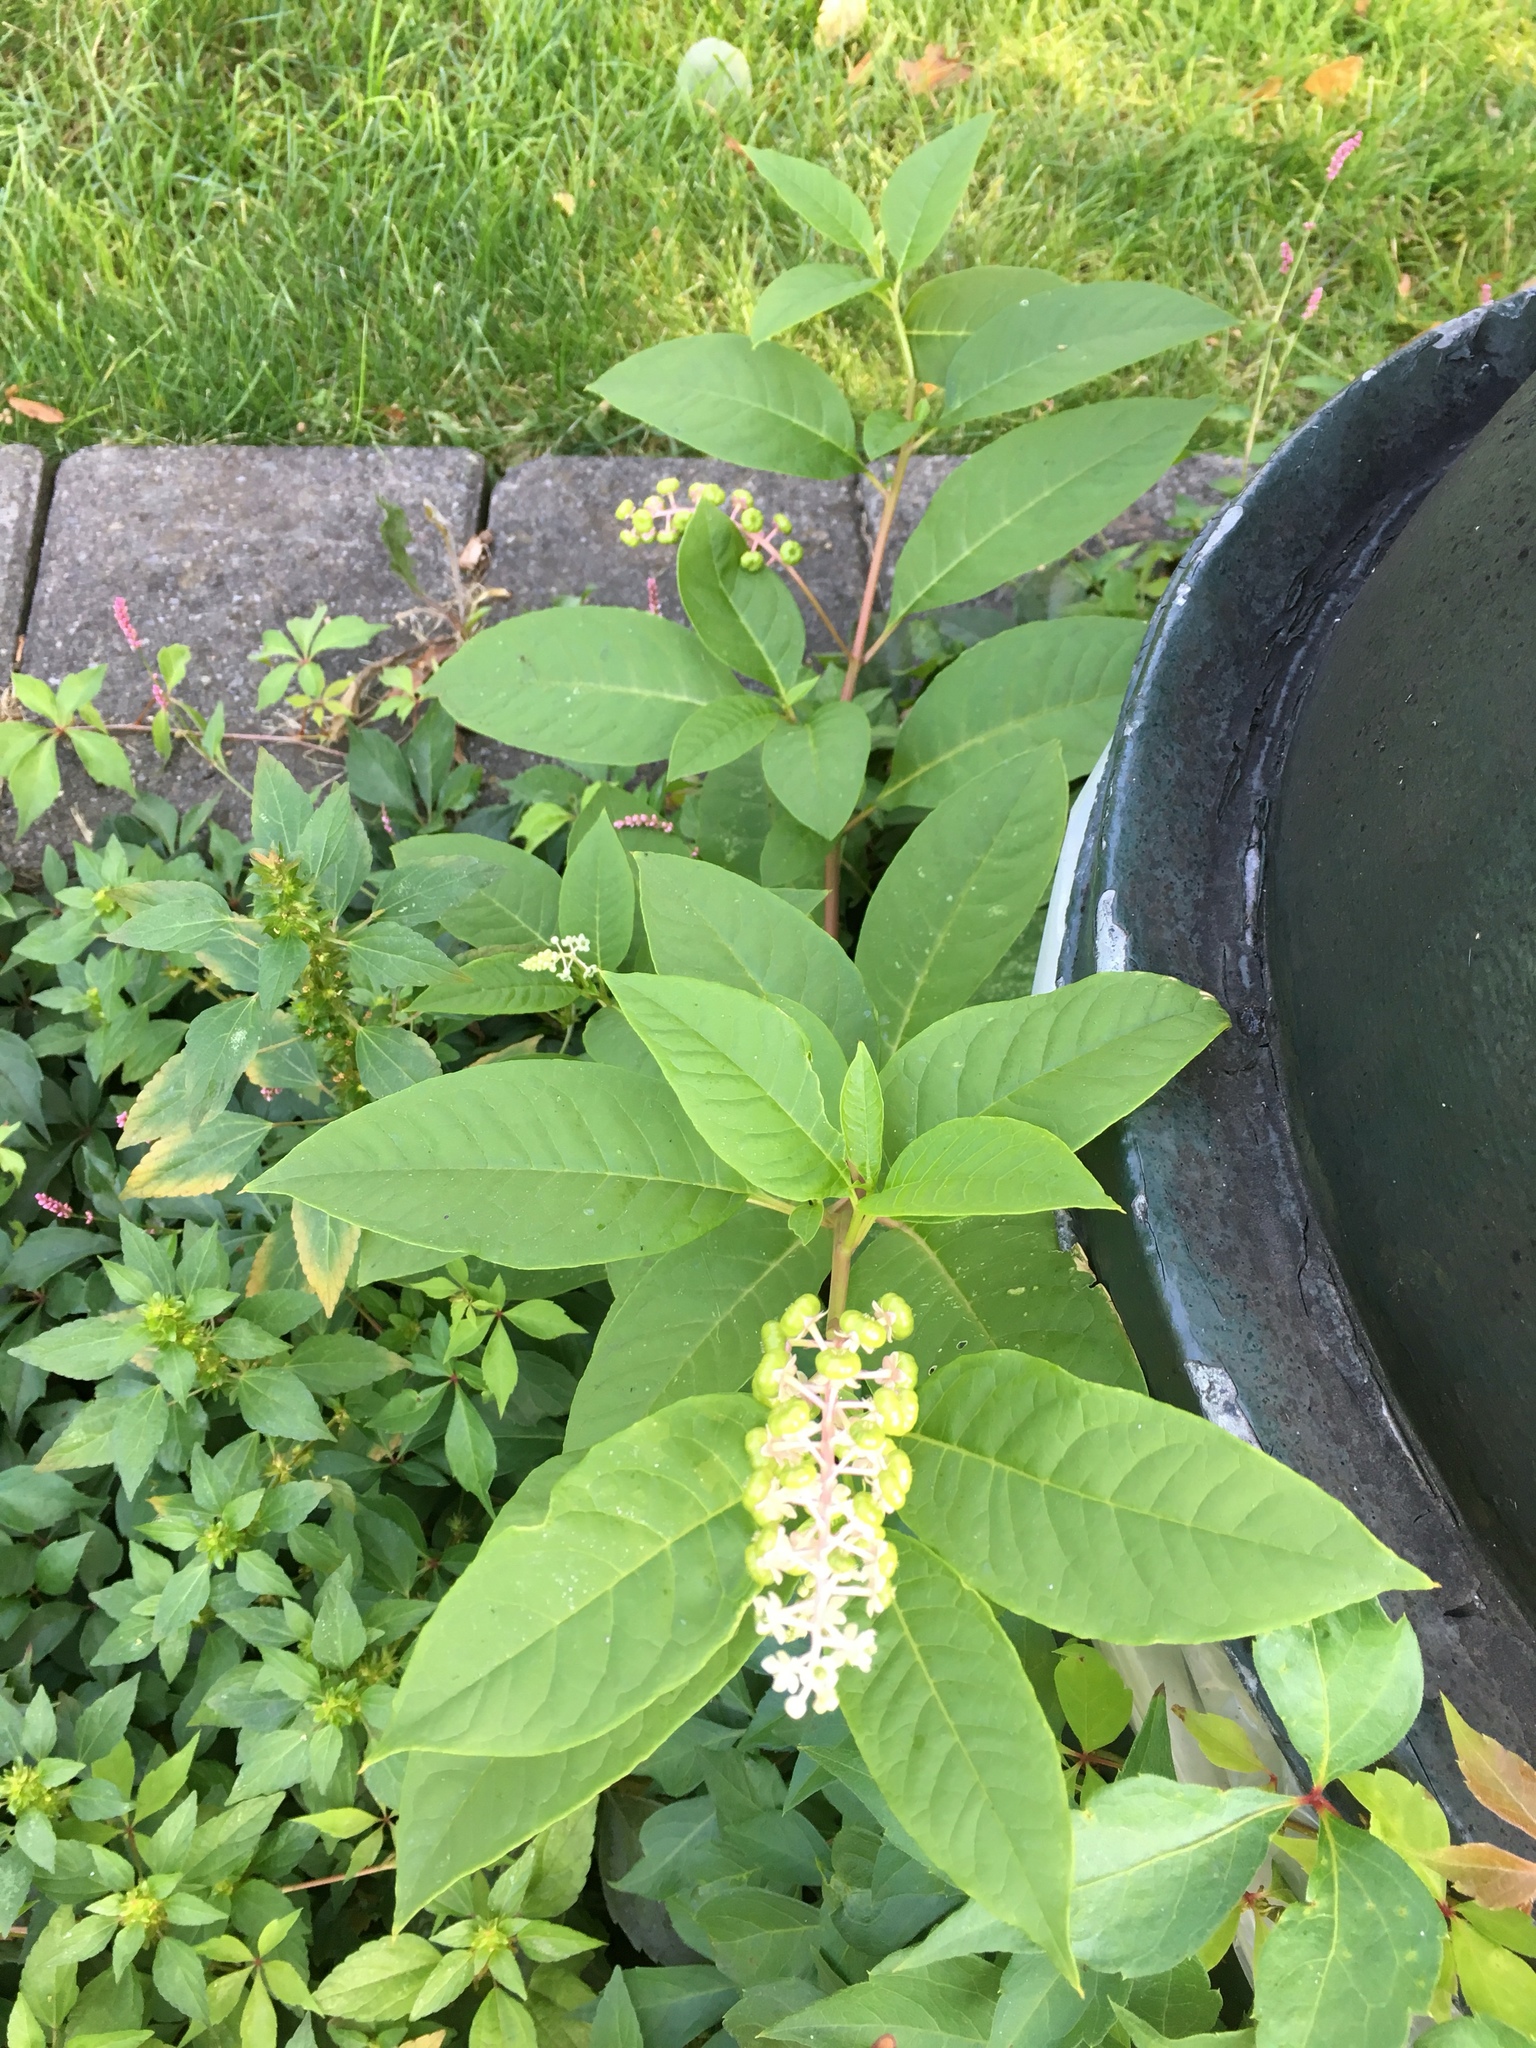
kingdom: Plantae
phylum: Tracheophyta
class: Magnoliopsida
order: Caryophyllales
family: Phytolaccaceae
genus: Phytolacca
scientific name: Phytolacca americana
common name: American pokeweed
